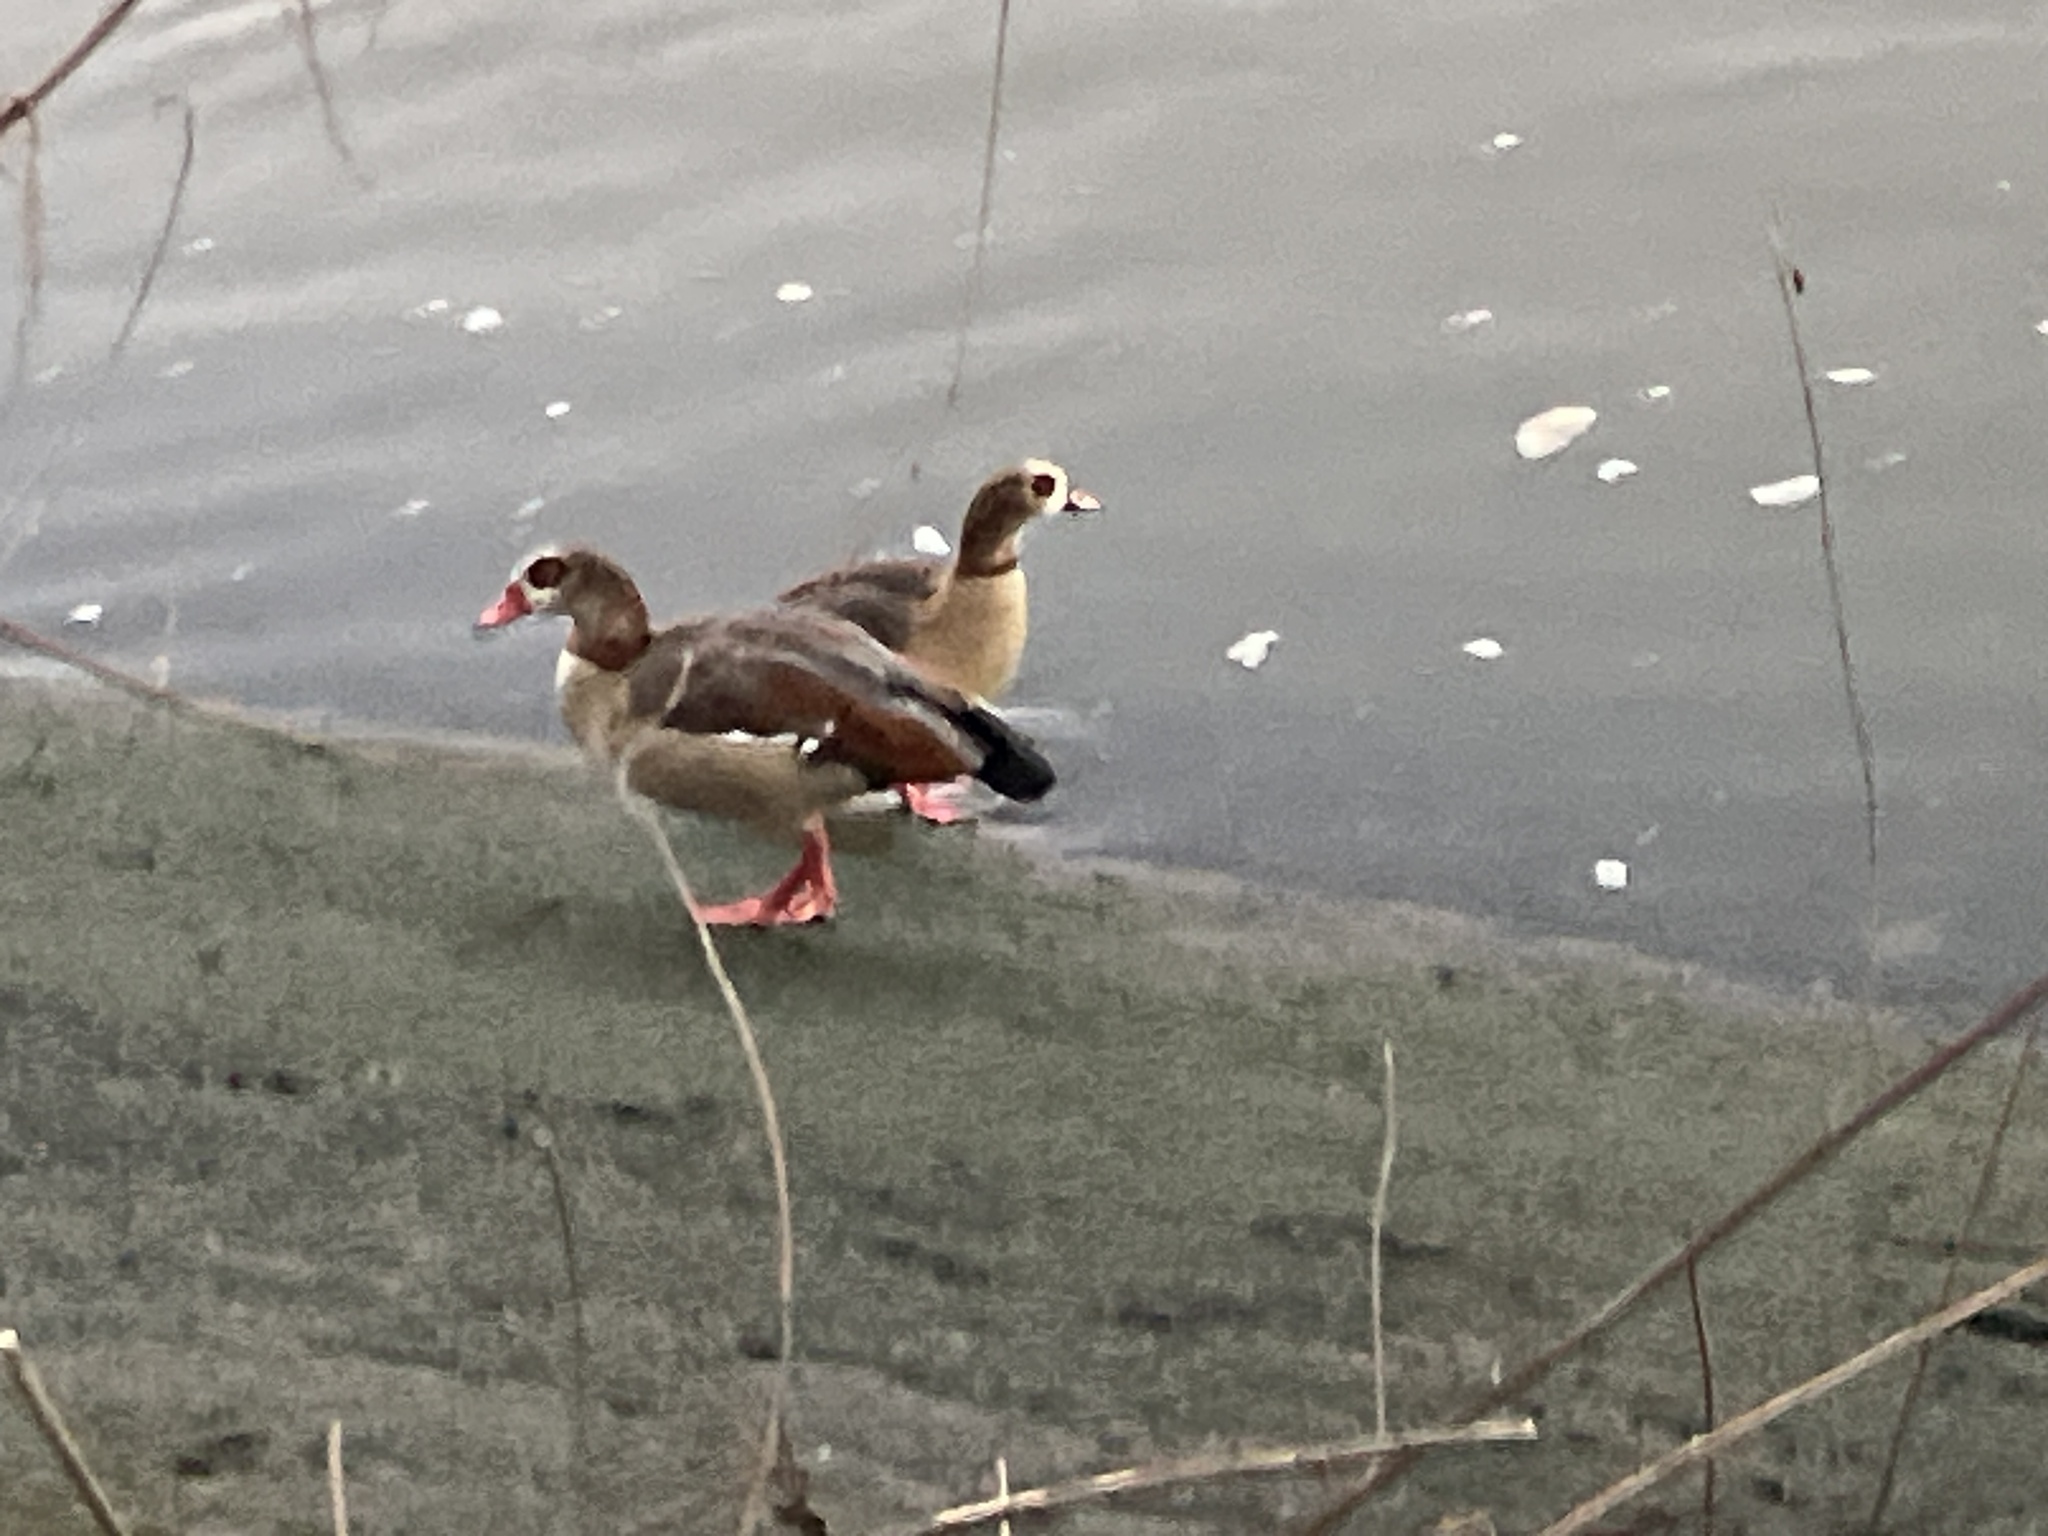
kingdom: Animalia
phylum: Chordata
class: Aves
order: Anseriformes
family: Anatidae
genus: Alopochen
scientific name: Alopochen aegyptiaca
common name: Egyptian goose
